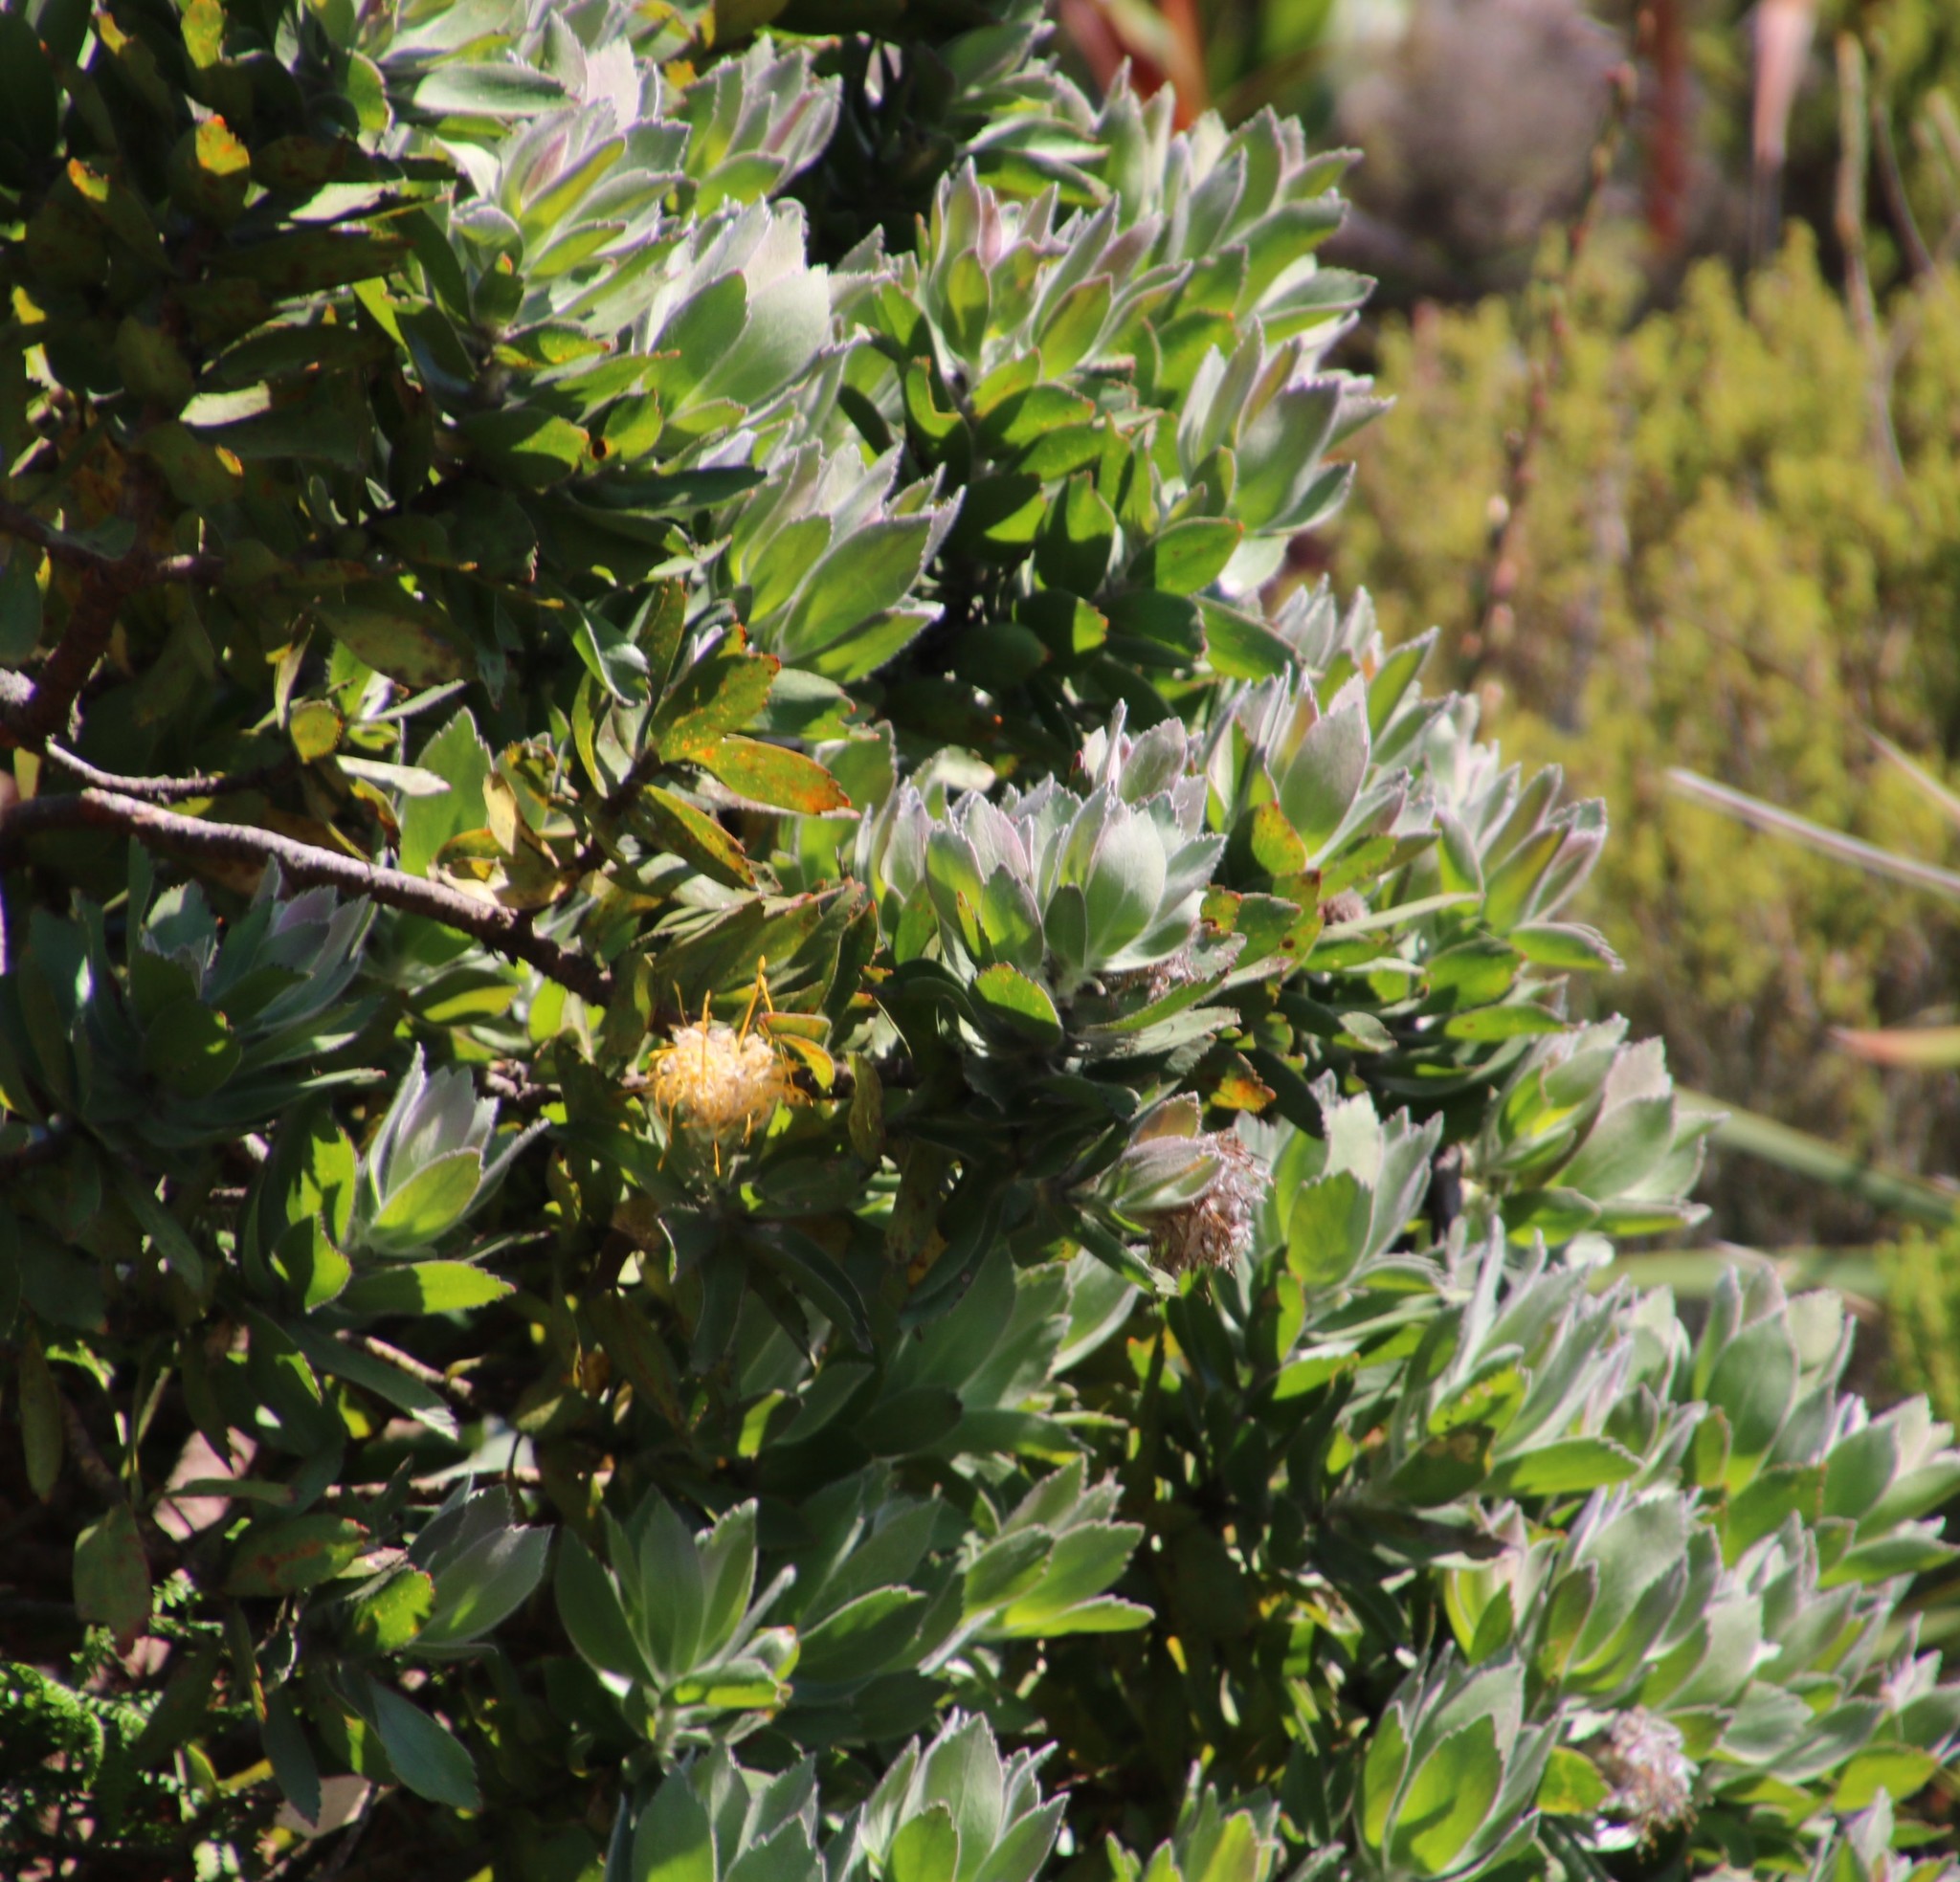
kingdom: Plantae
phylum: Tracheophyta
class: Magnoliopsida
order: Proteales
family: Proteaceae
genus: Leucospermum
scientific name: Leucospermum conocarpodendron
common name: Tree pincushion
